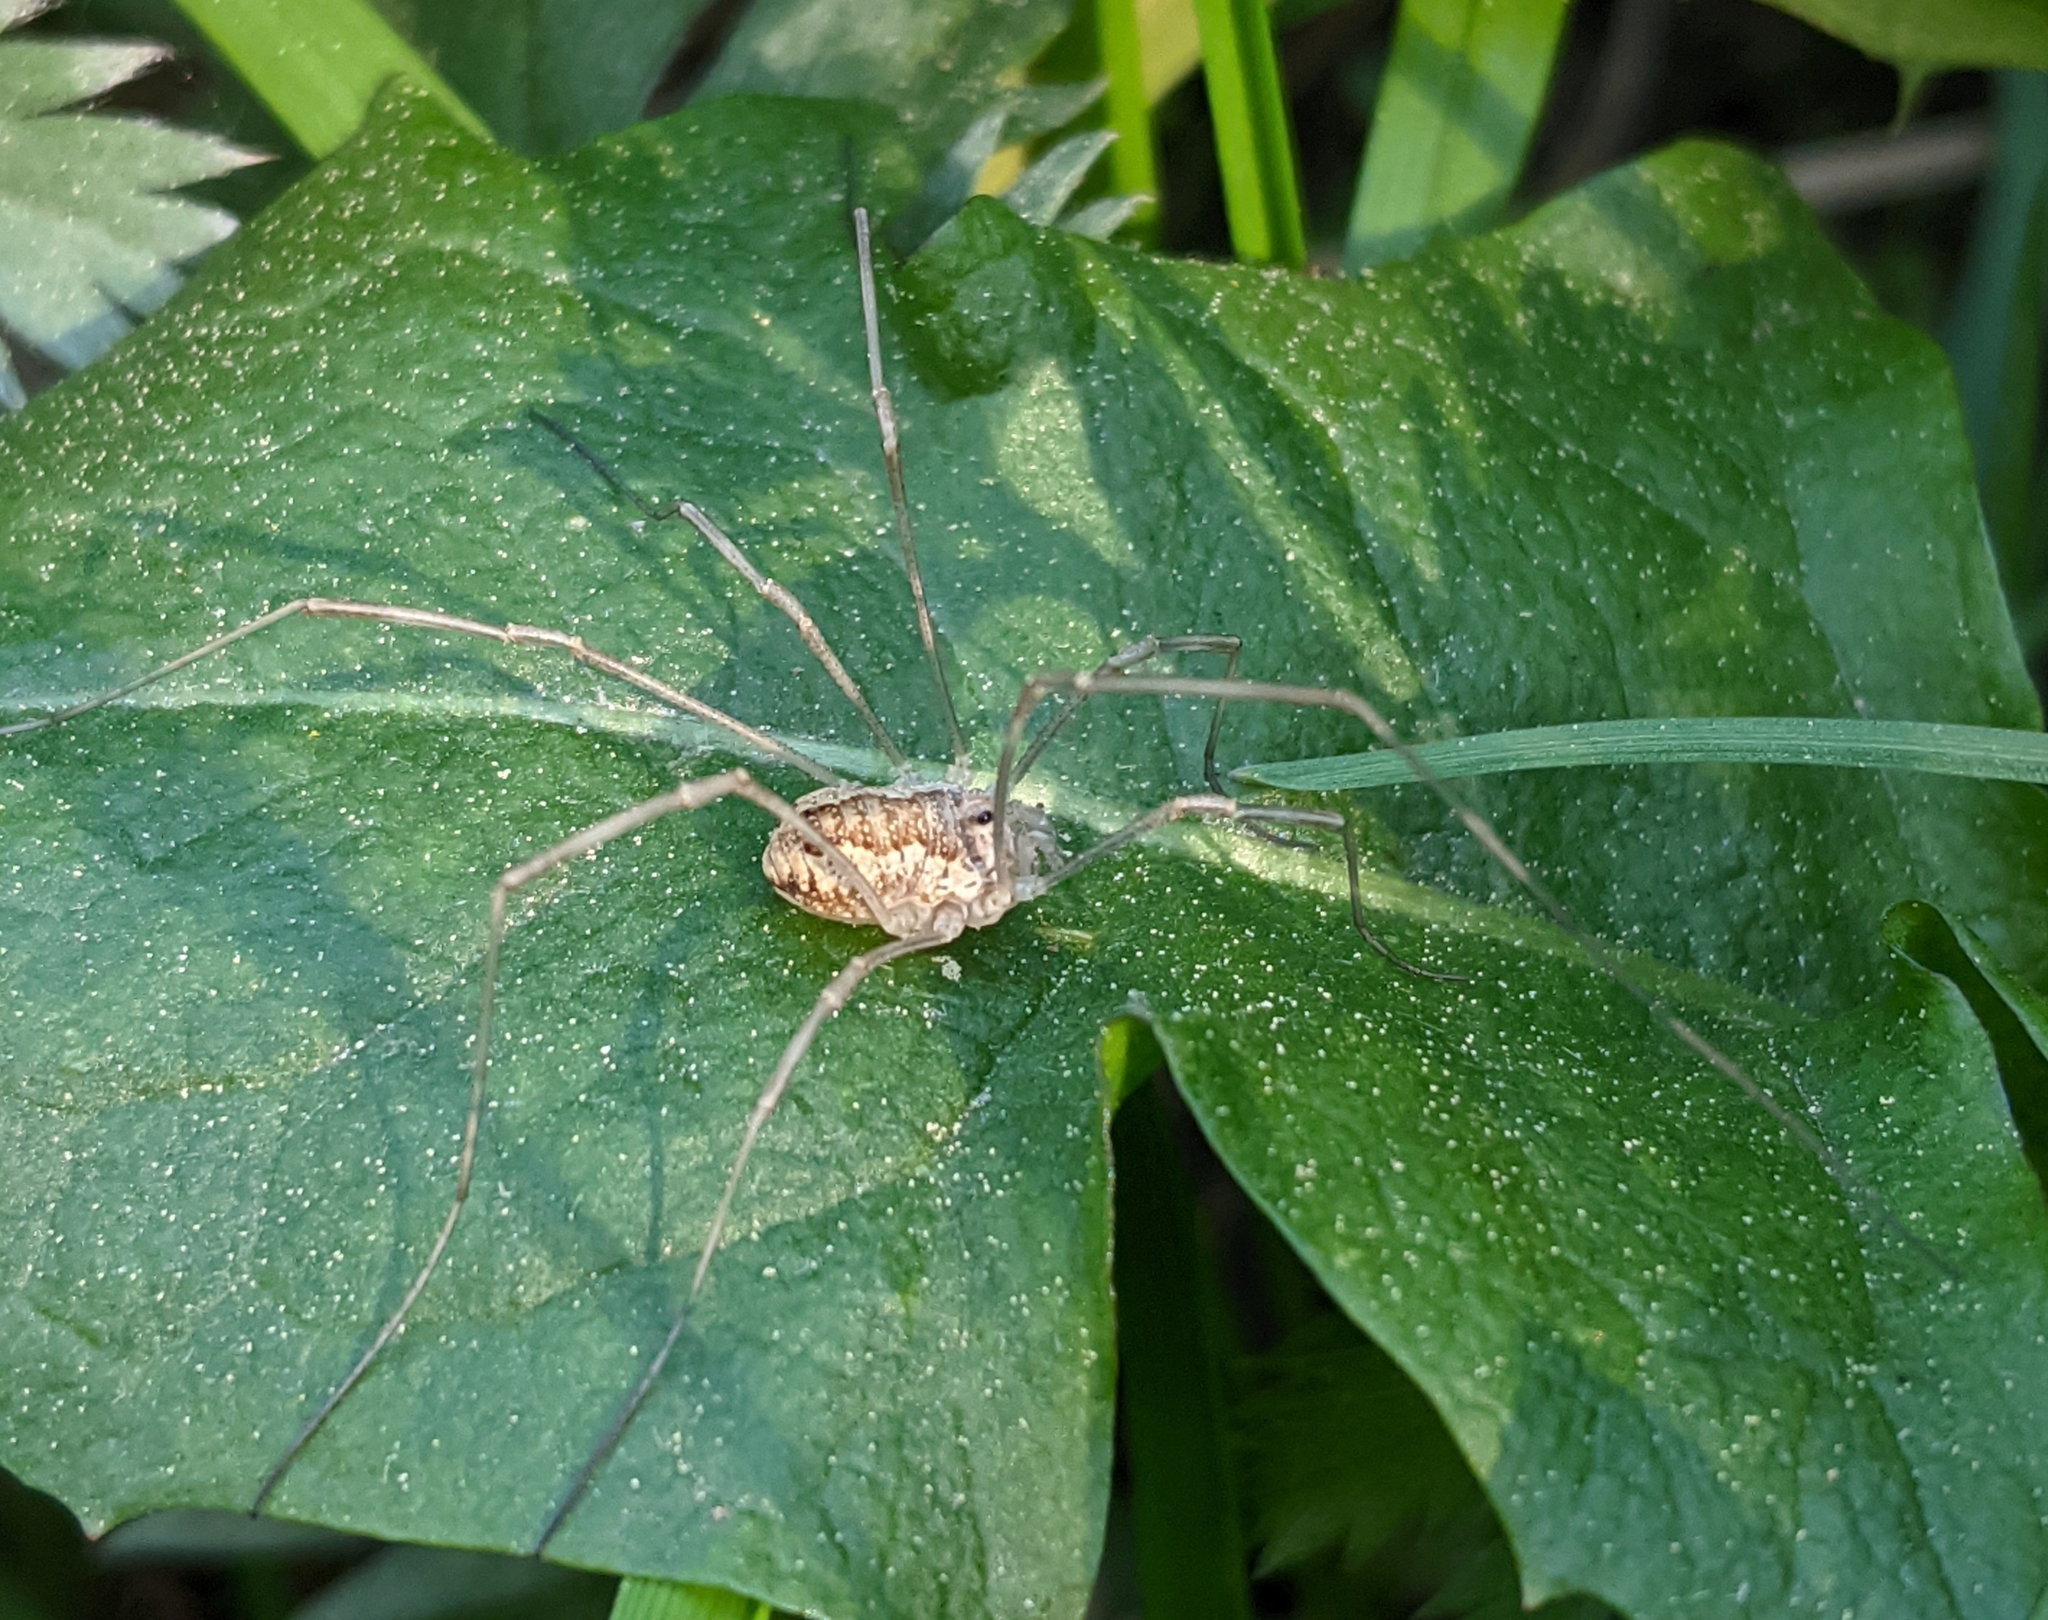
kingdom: Animalia
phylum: Arthropoda
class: Arachnida
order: Opiliones
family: Phalangiidae
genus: Rilaena
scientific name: Rilaena triangularis
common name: Spring harvestman
